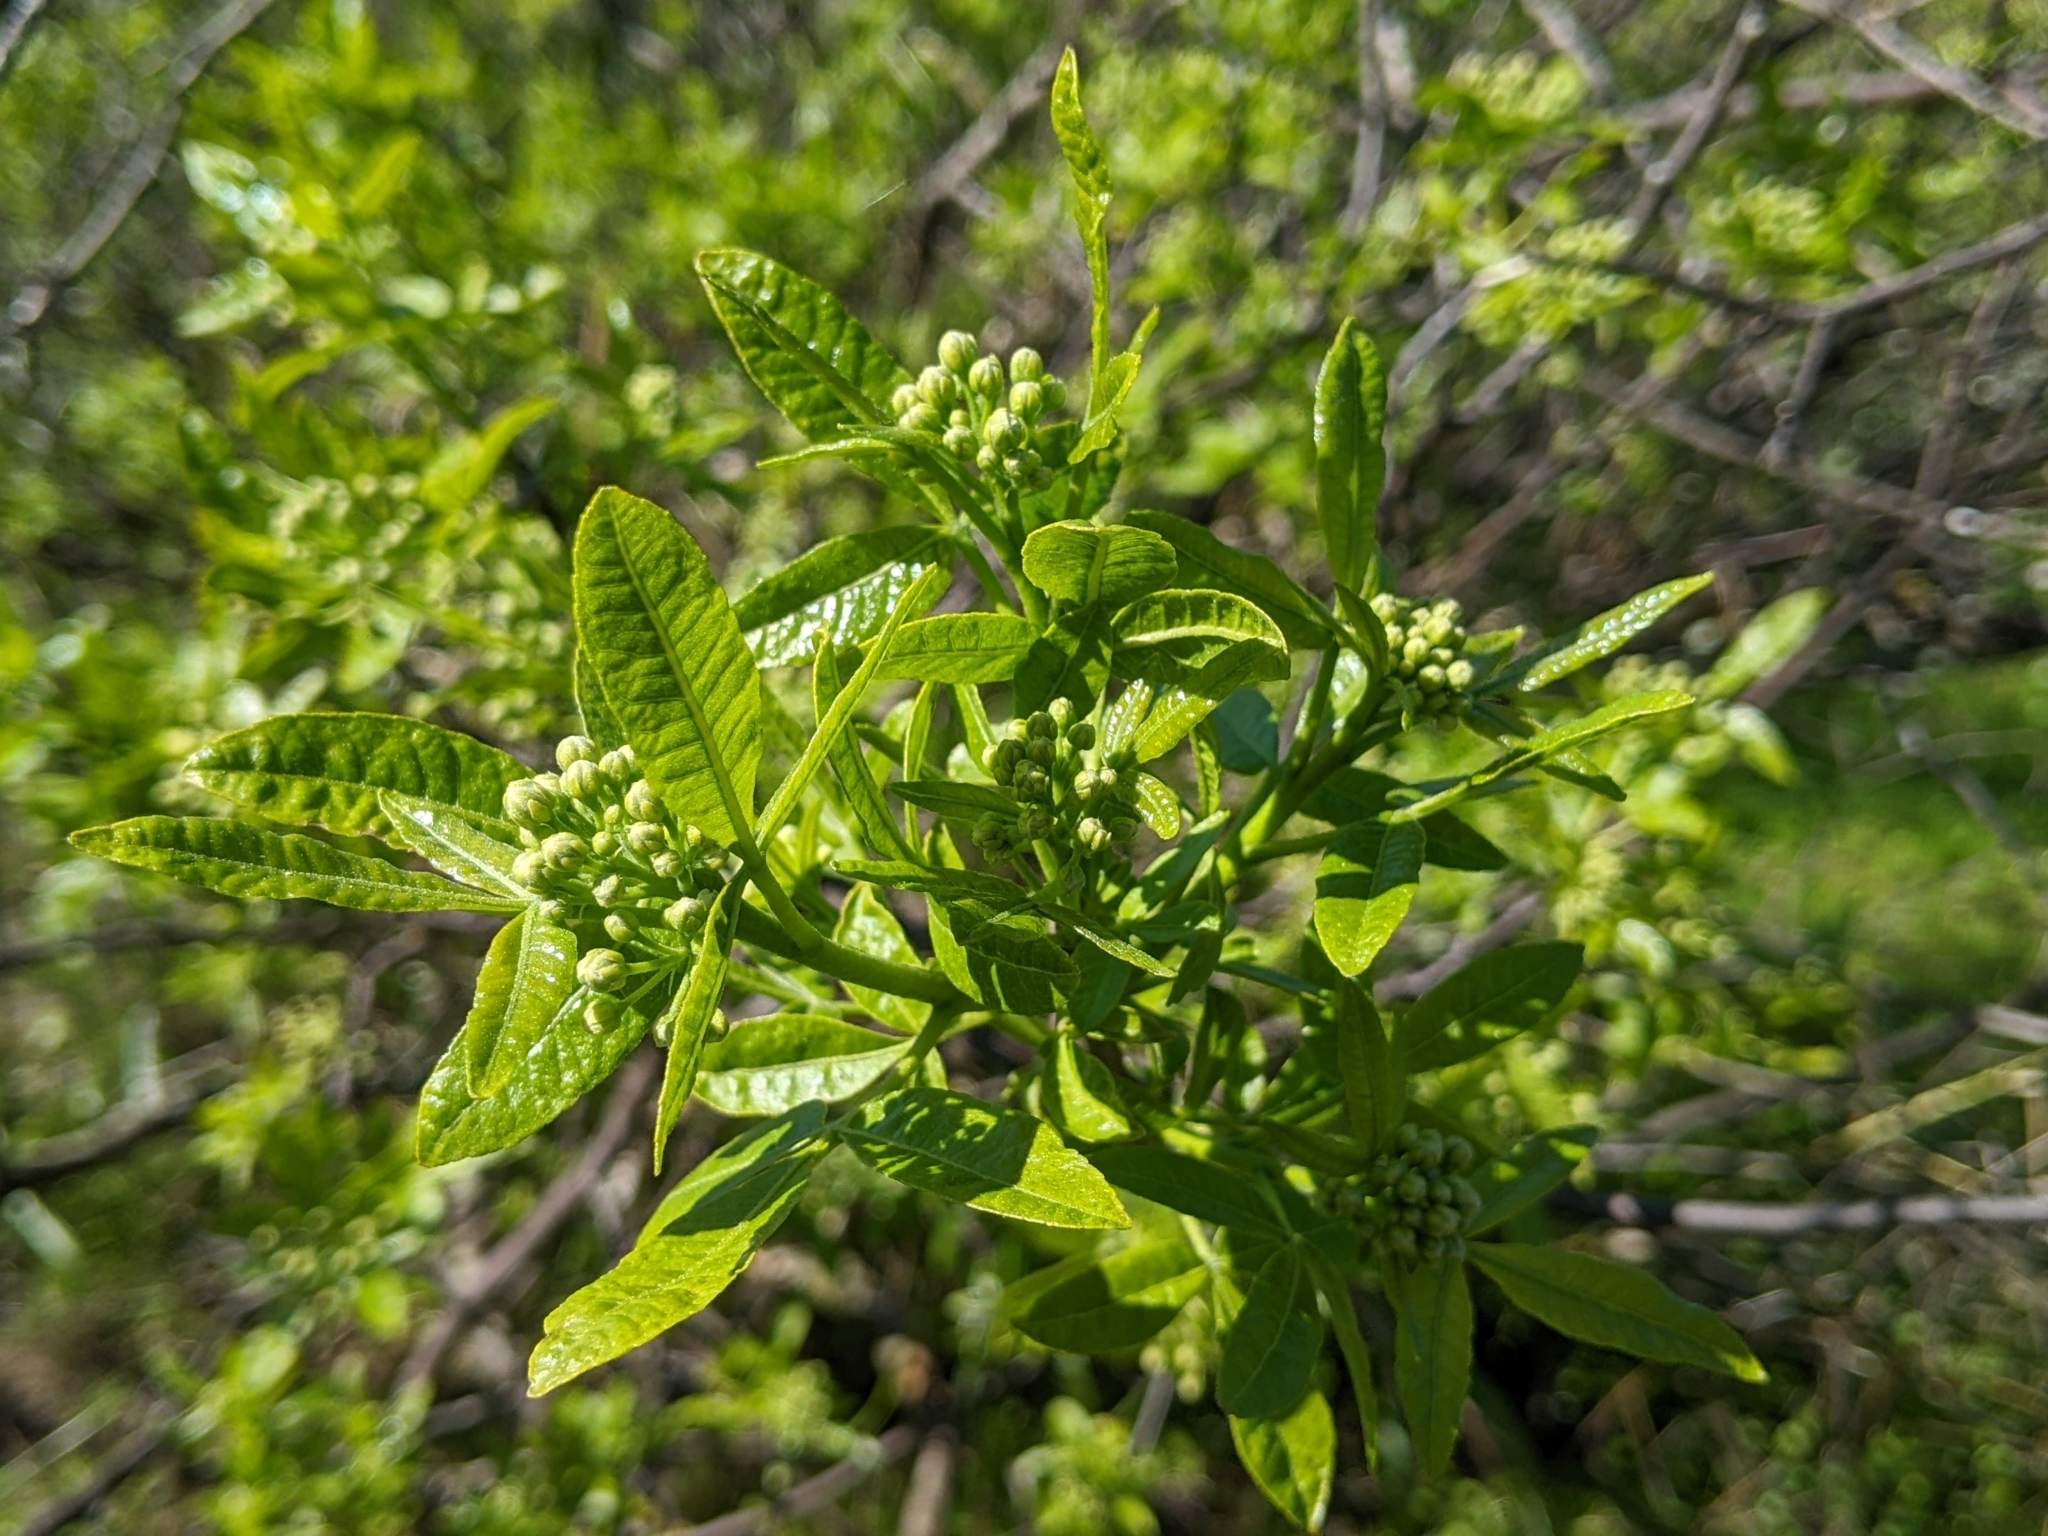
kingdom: Plantae
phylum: Tracheophyta
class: Magnoliopsida
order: Sapindales
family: Rutaceae
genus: Ptelea
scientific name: Ptelea crenulata
